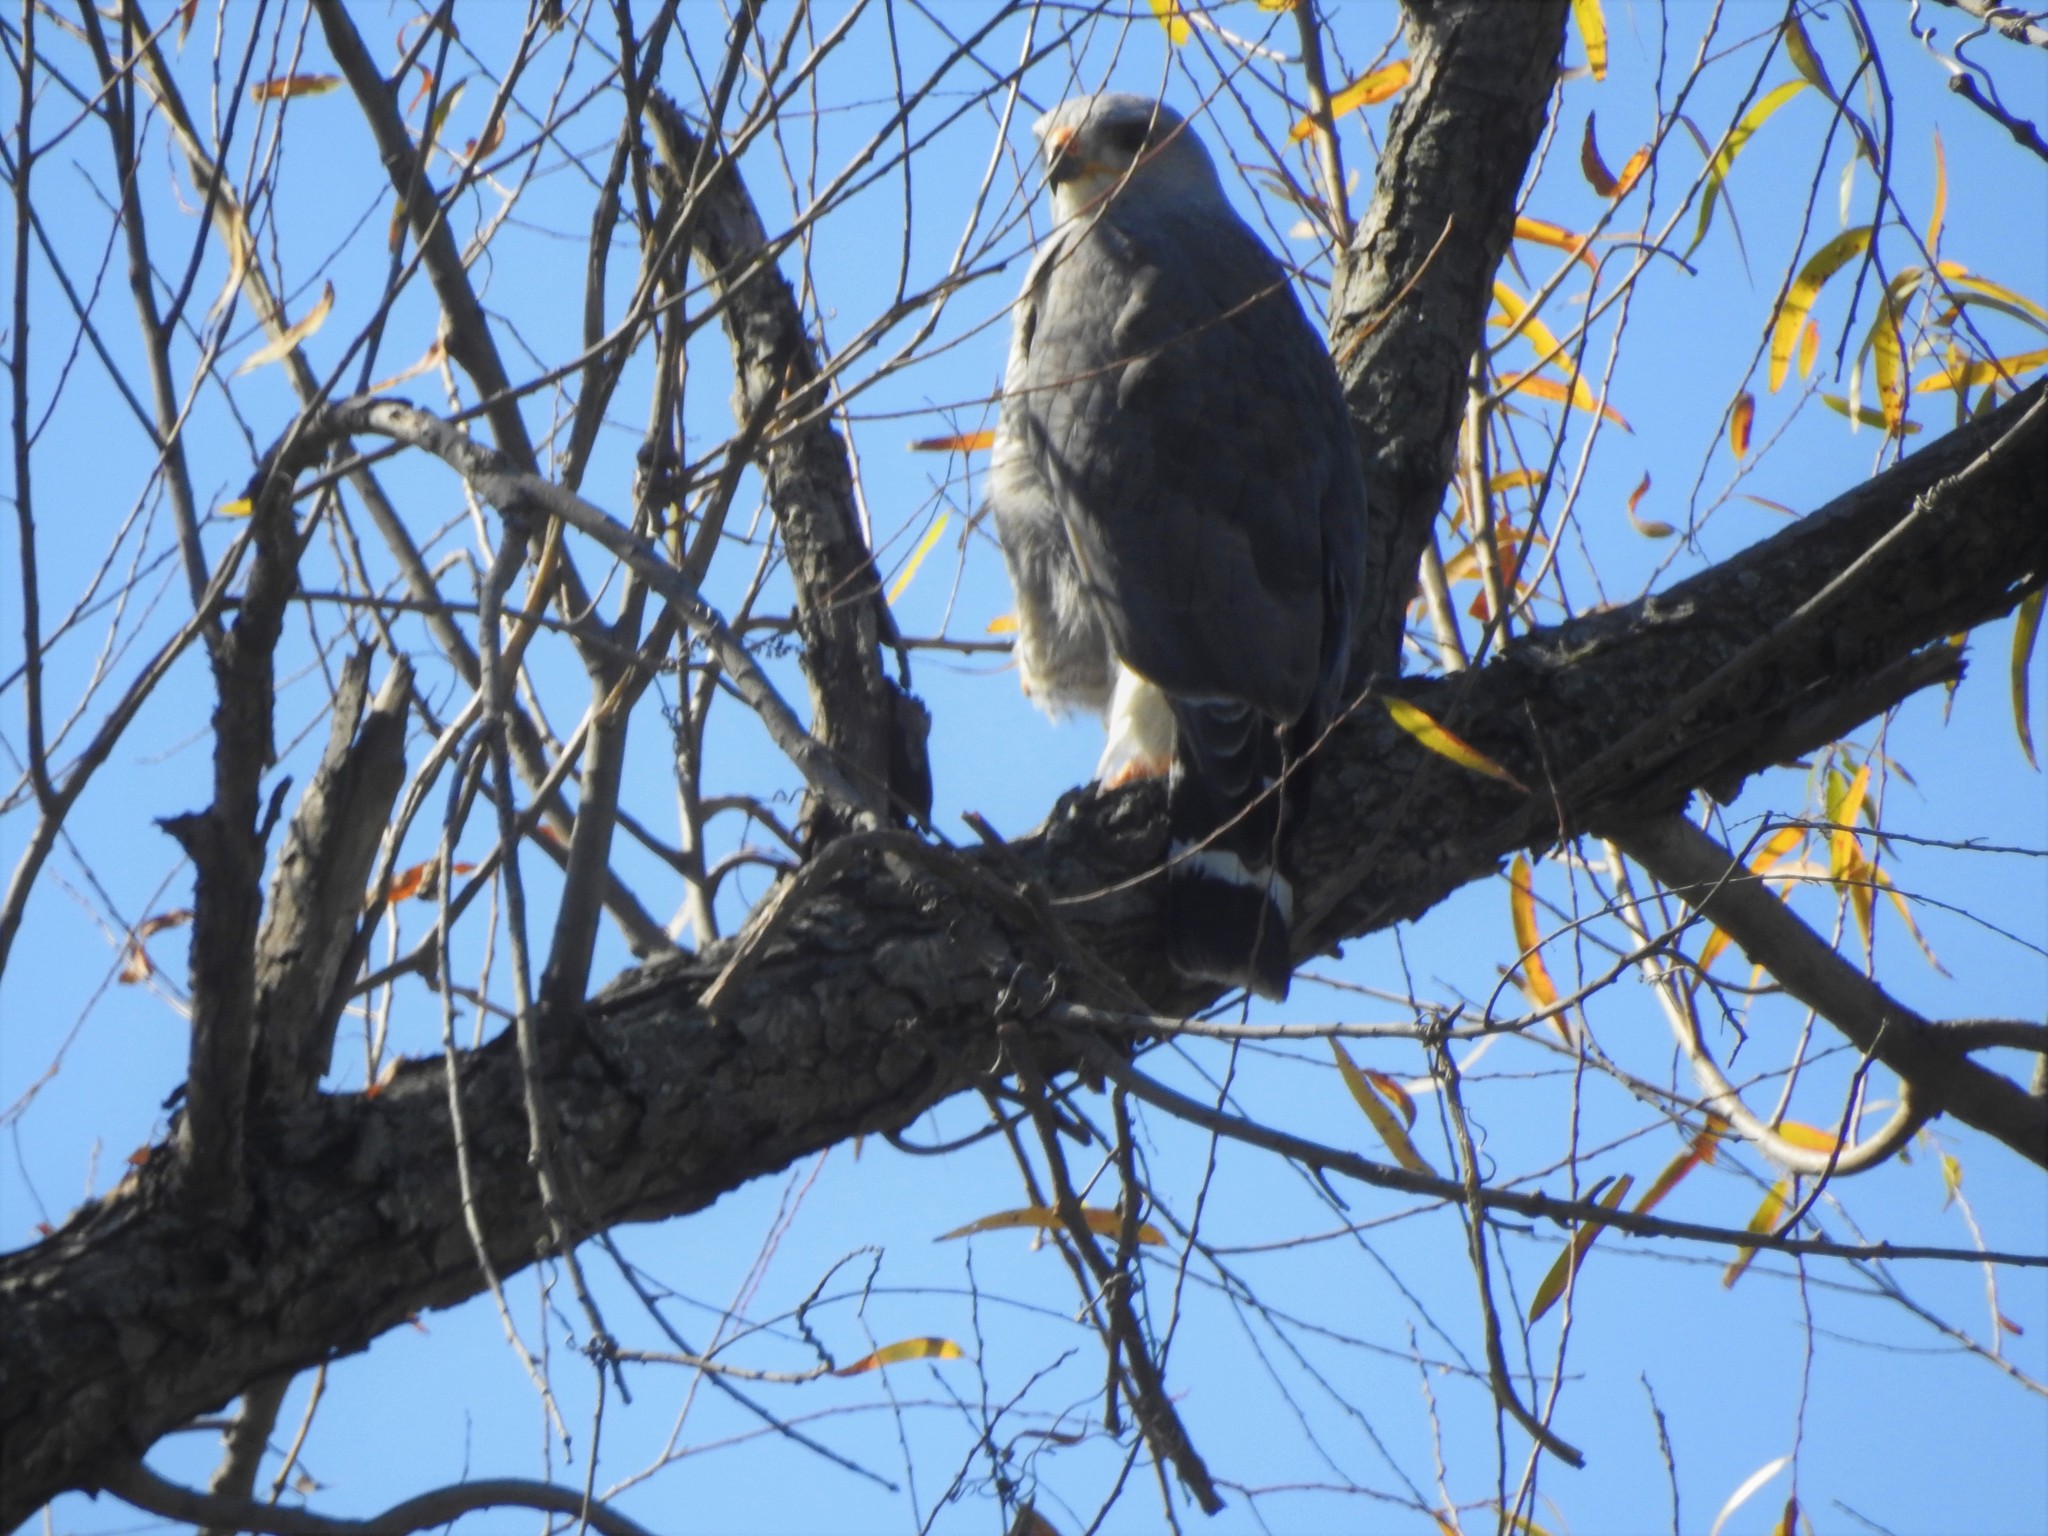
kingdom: Animalia
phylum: Chordata
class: Aves
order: Accipitriformes
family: Accipitridae
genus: Buteo
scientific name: Buteo nitidus
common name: Grey-lined hawk
